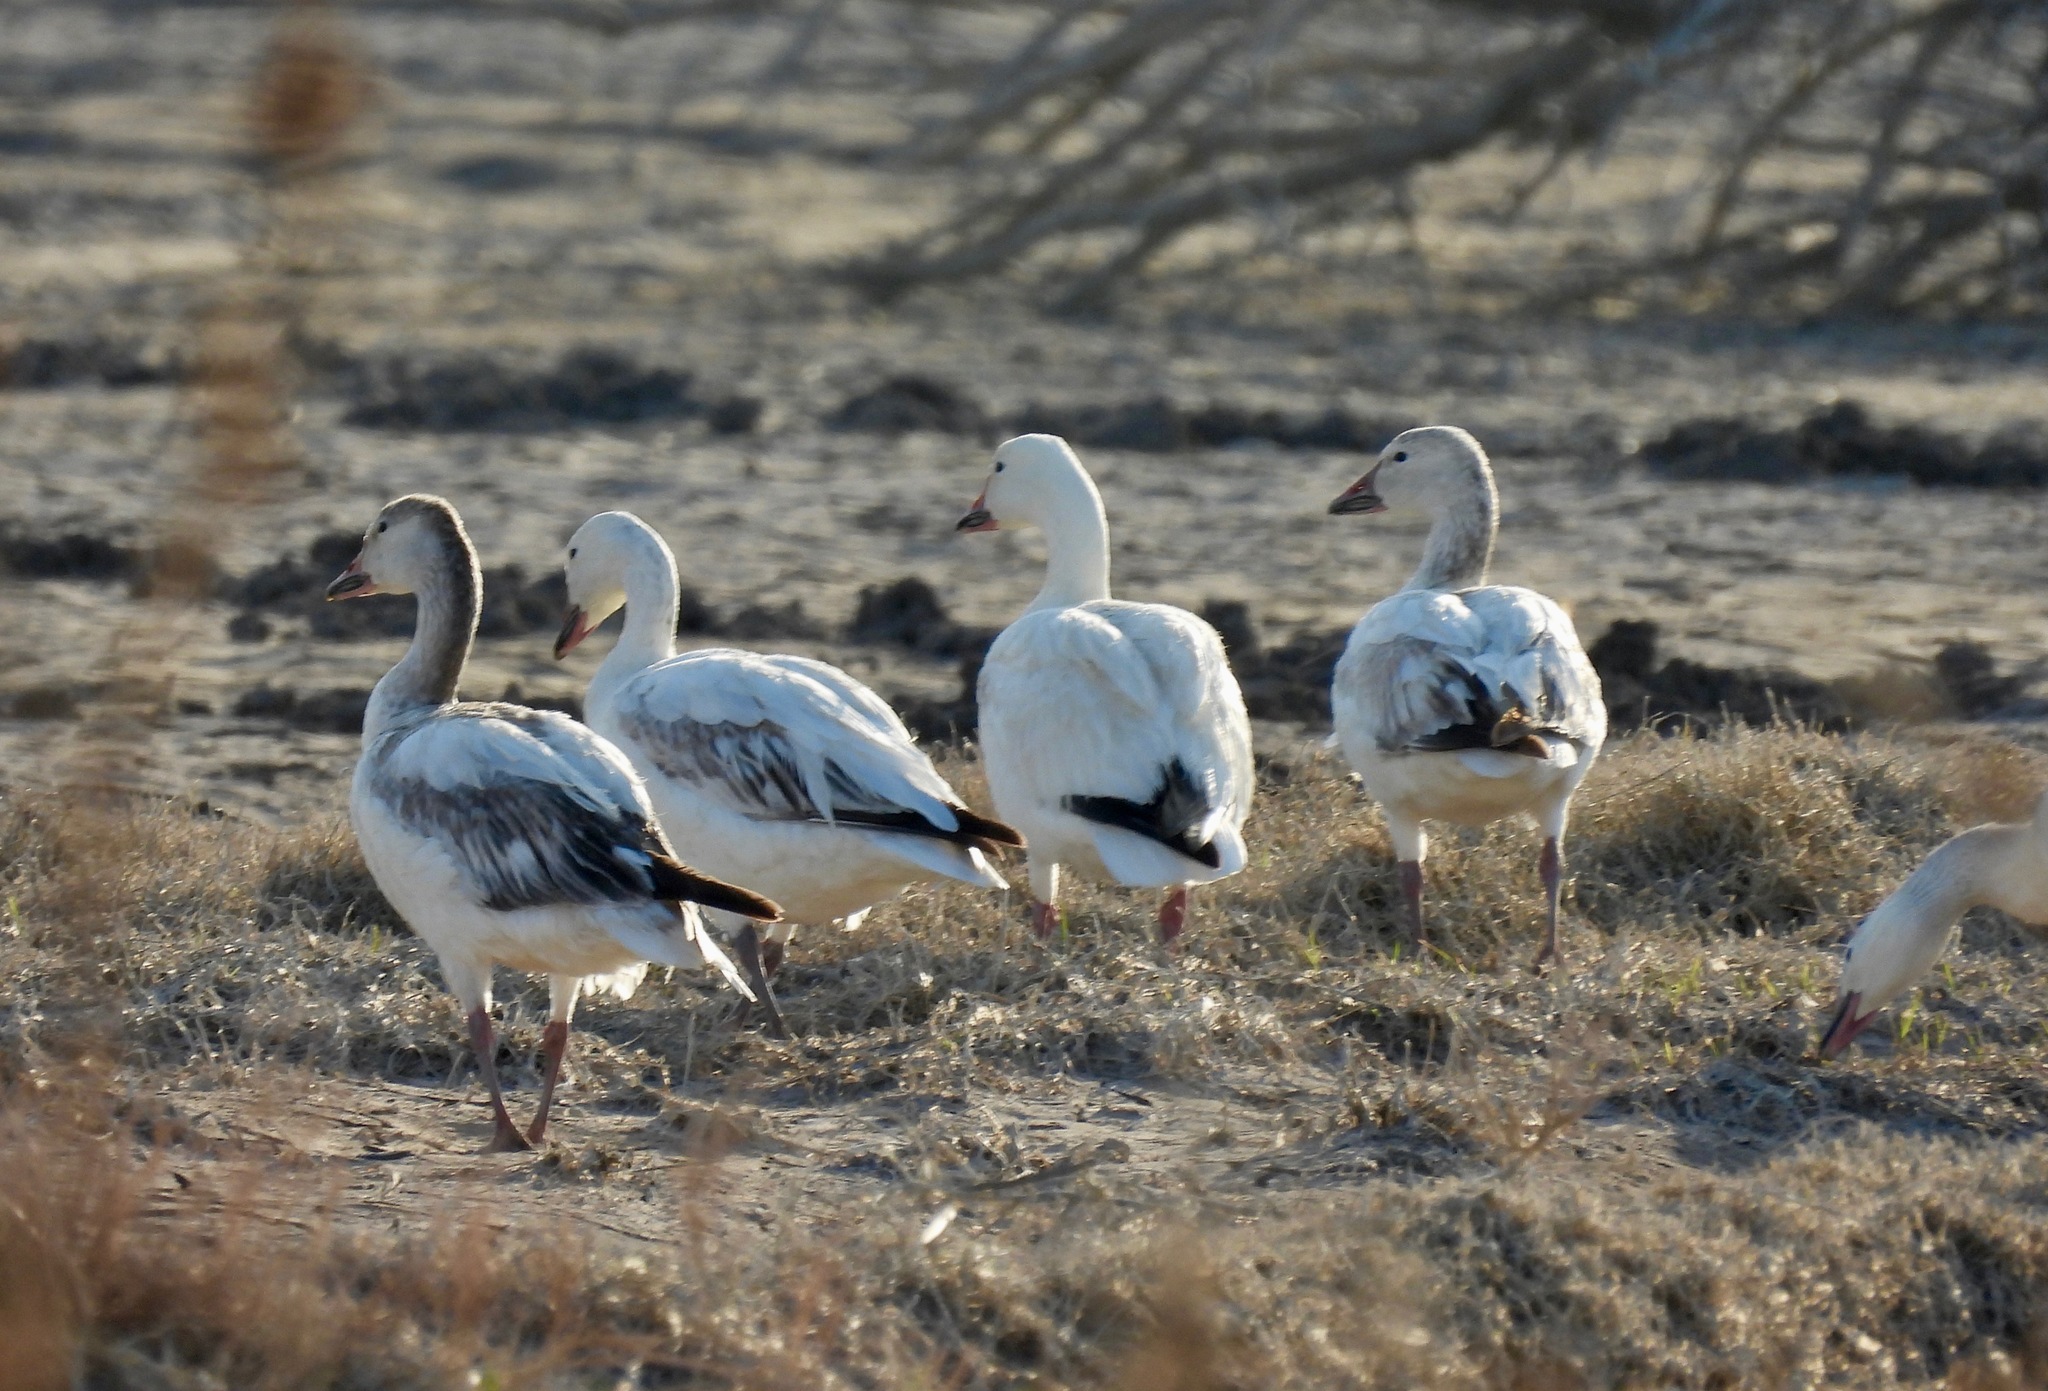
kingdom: Animalia
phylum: Chordata
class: Aves
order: Anseriformes
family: Anatidae
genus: Anser
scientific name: Anser caerulescens
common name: Snow goose
